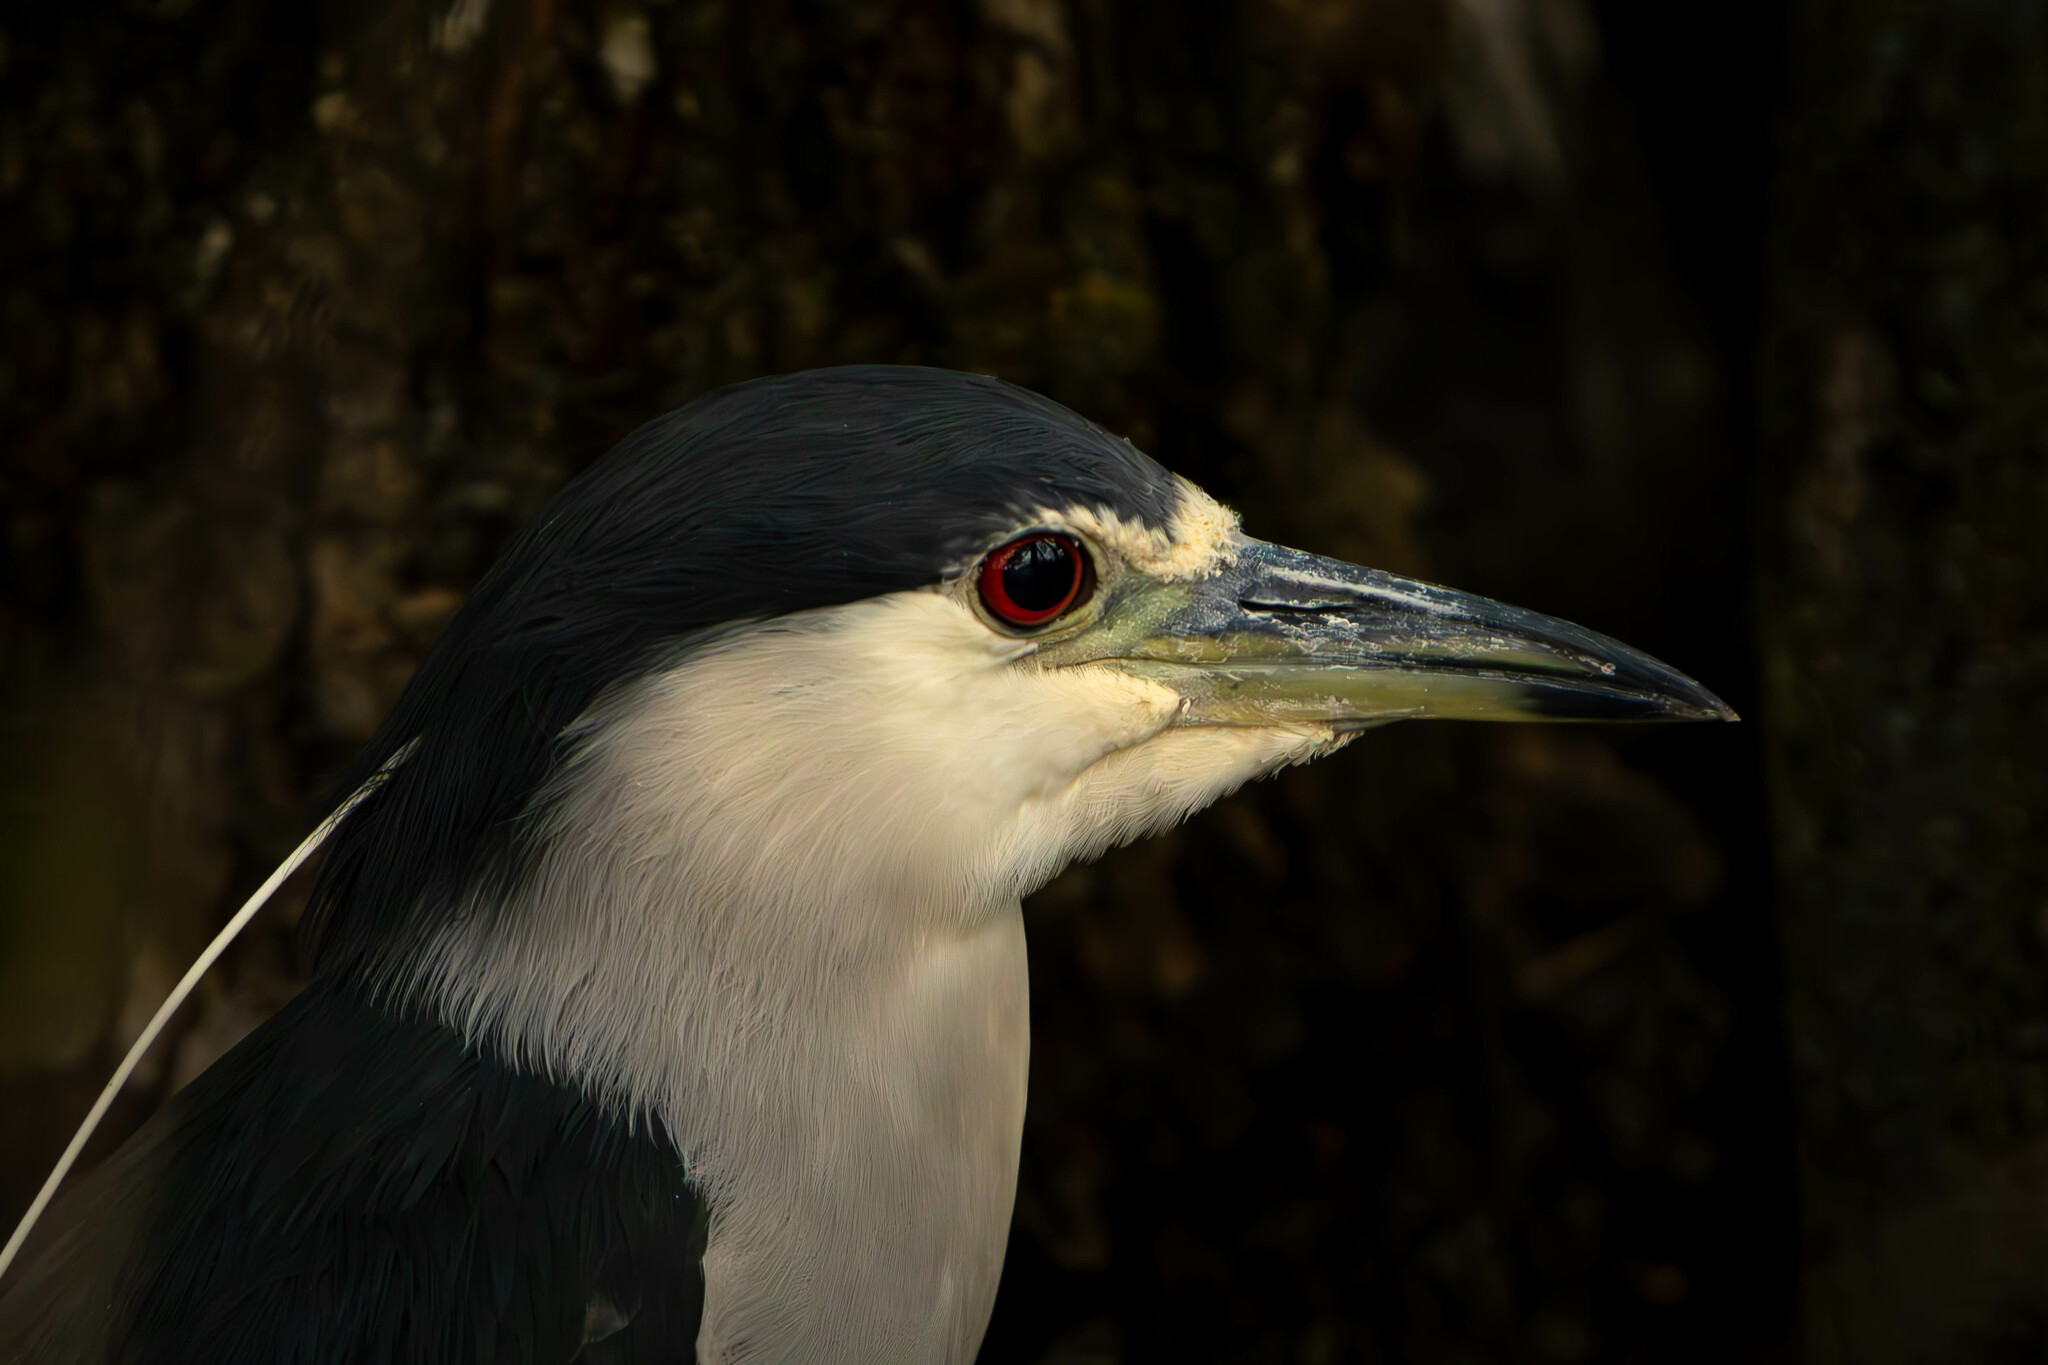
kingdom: Animalia
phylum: Chordata
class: Aves
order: Pelecaniformes
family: Ardeidae
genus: Nycticorax
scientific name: Nycticorax nycticorax
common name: Black-crowned night heron
